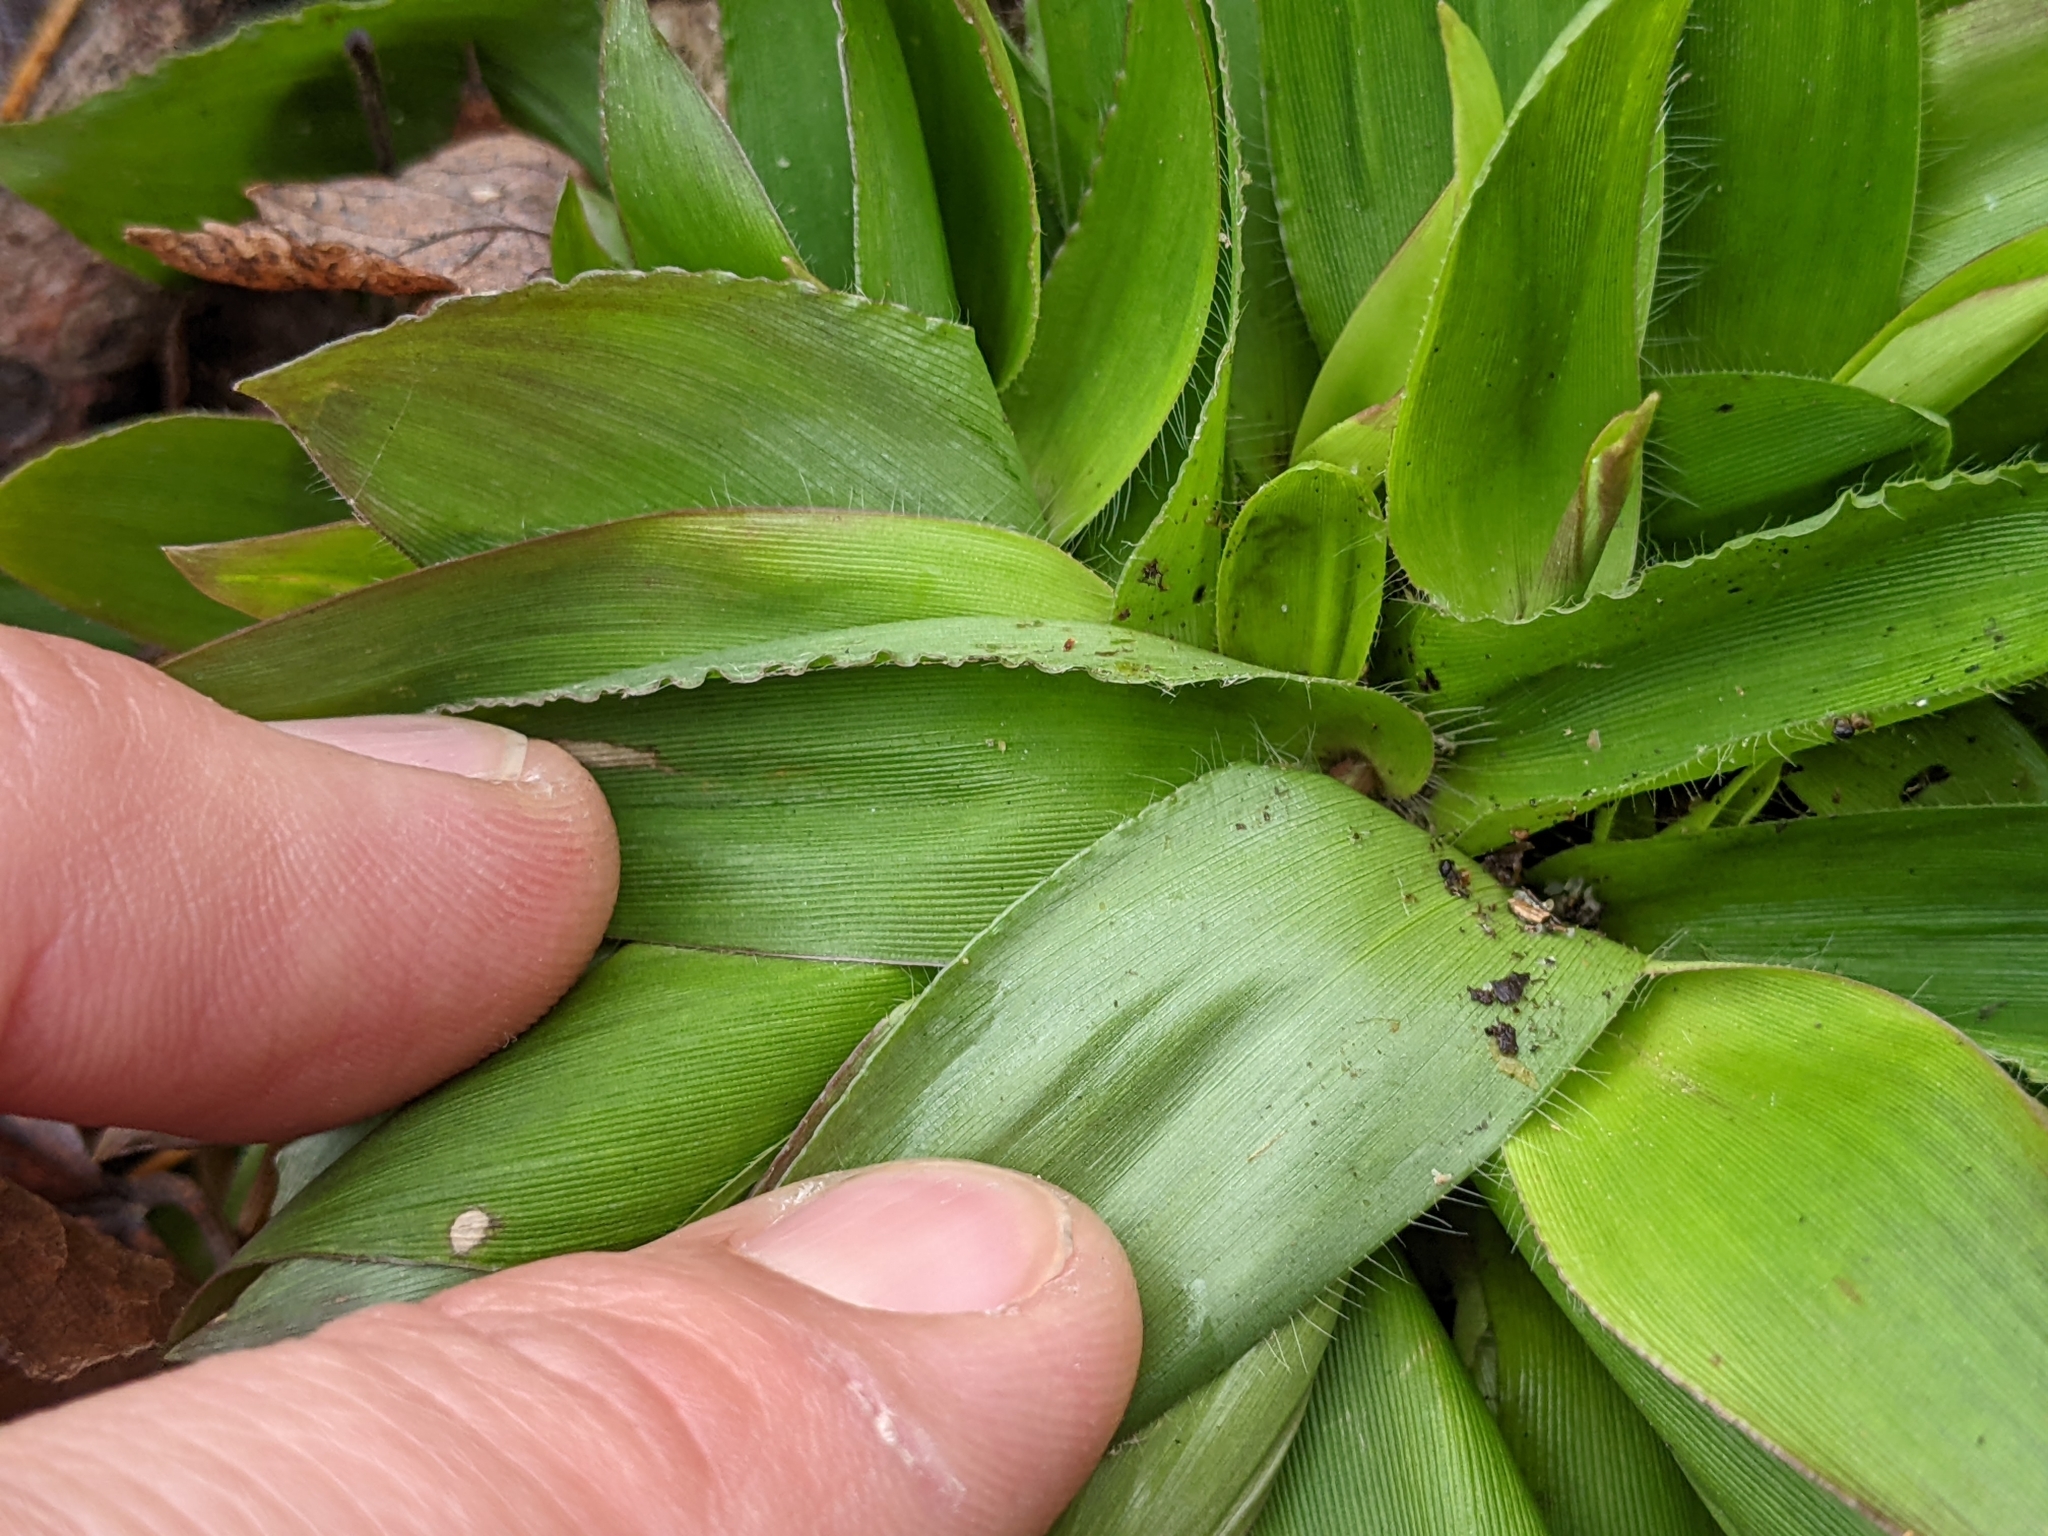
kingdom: Plantae
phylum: Tracheophyta
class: Liliopsida
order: Poales
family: Poaceae
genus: Dichanthelium
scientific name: Dichanthelium
